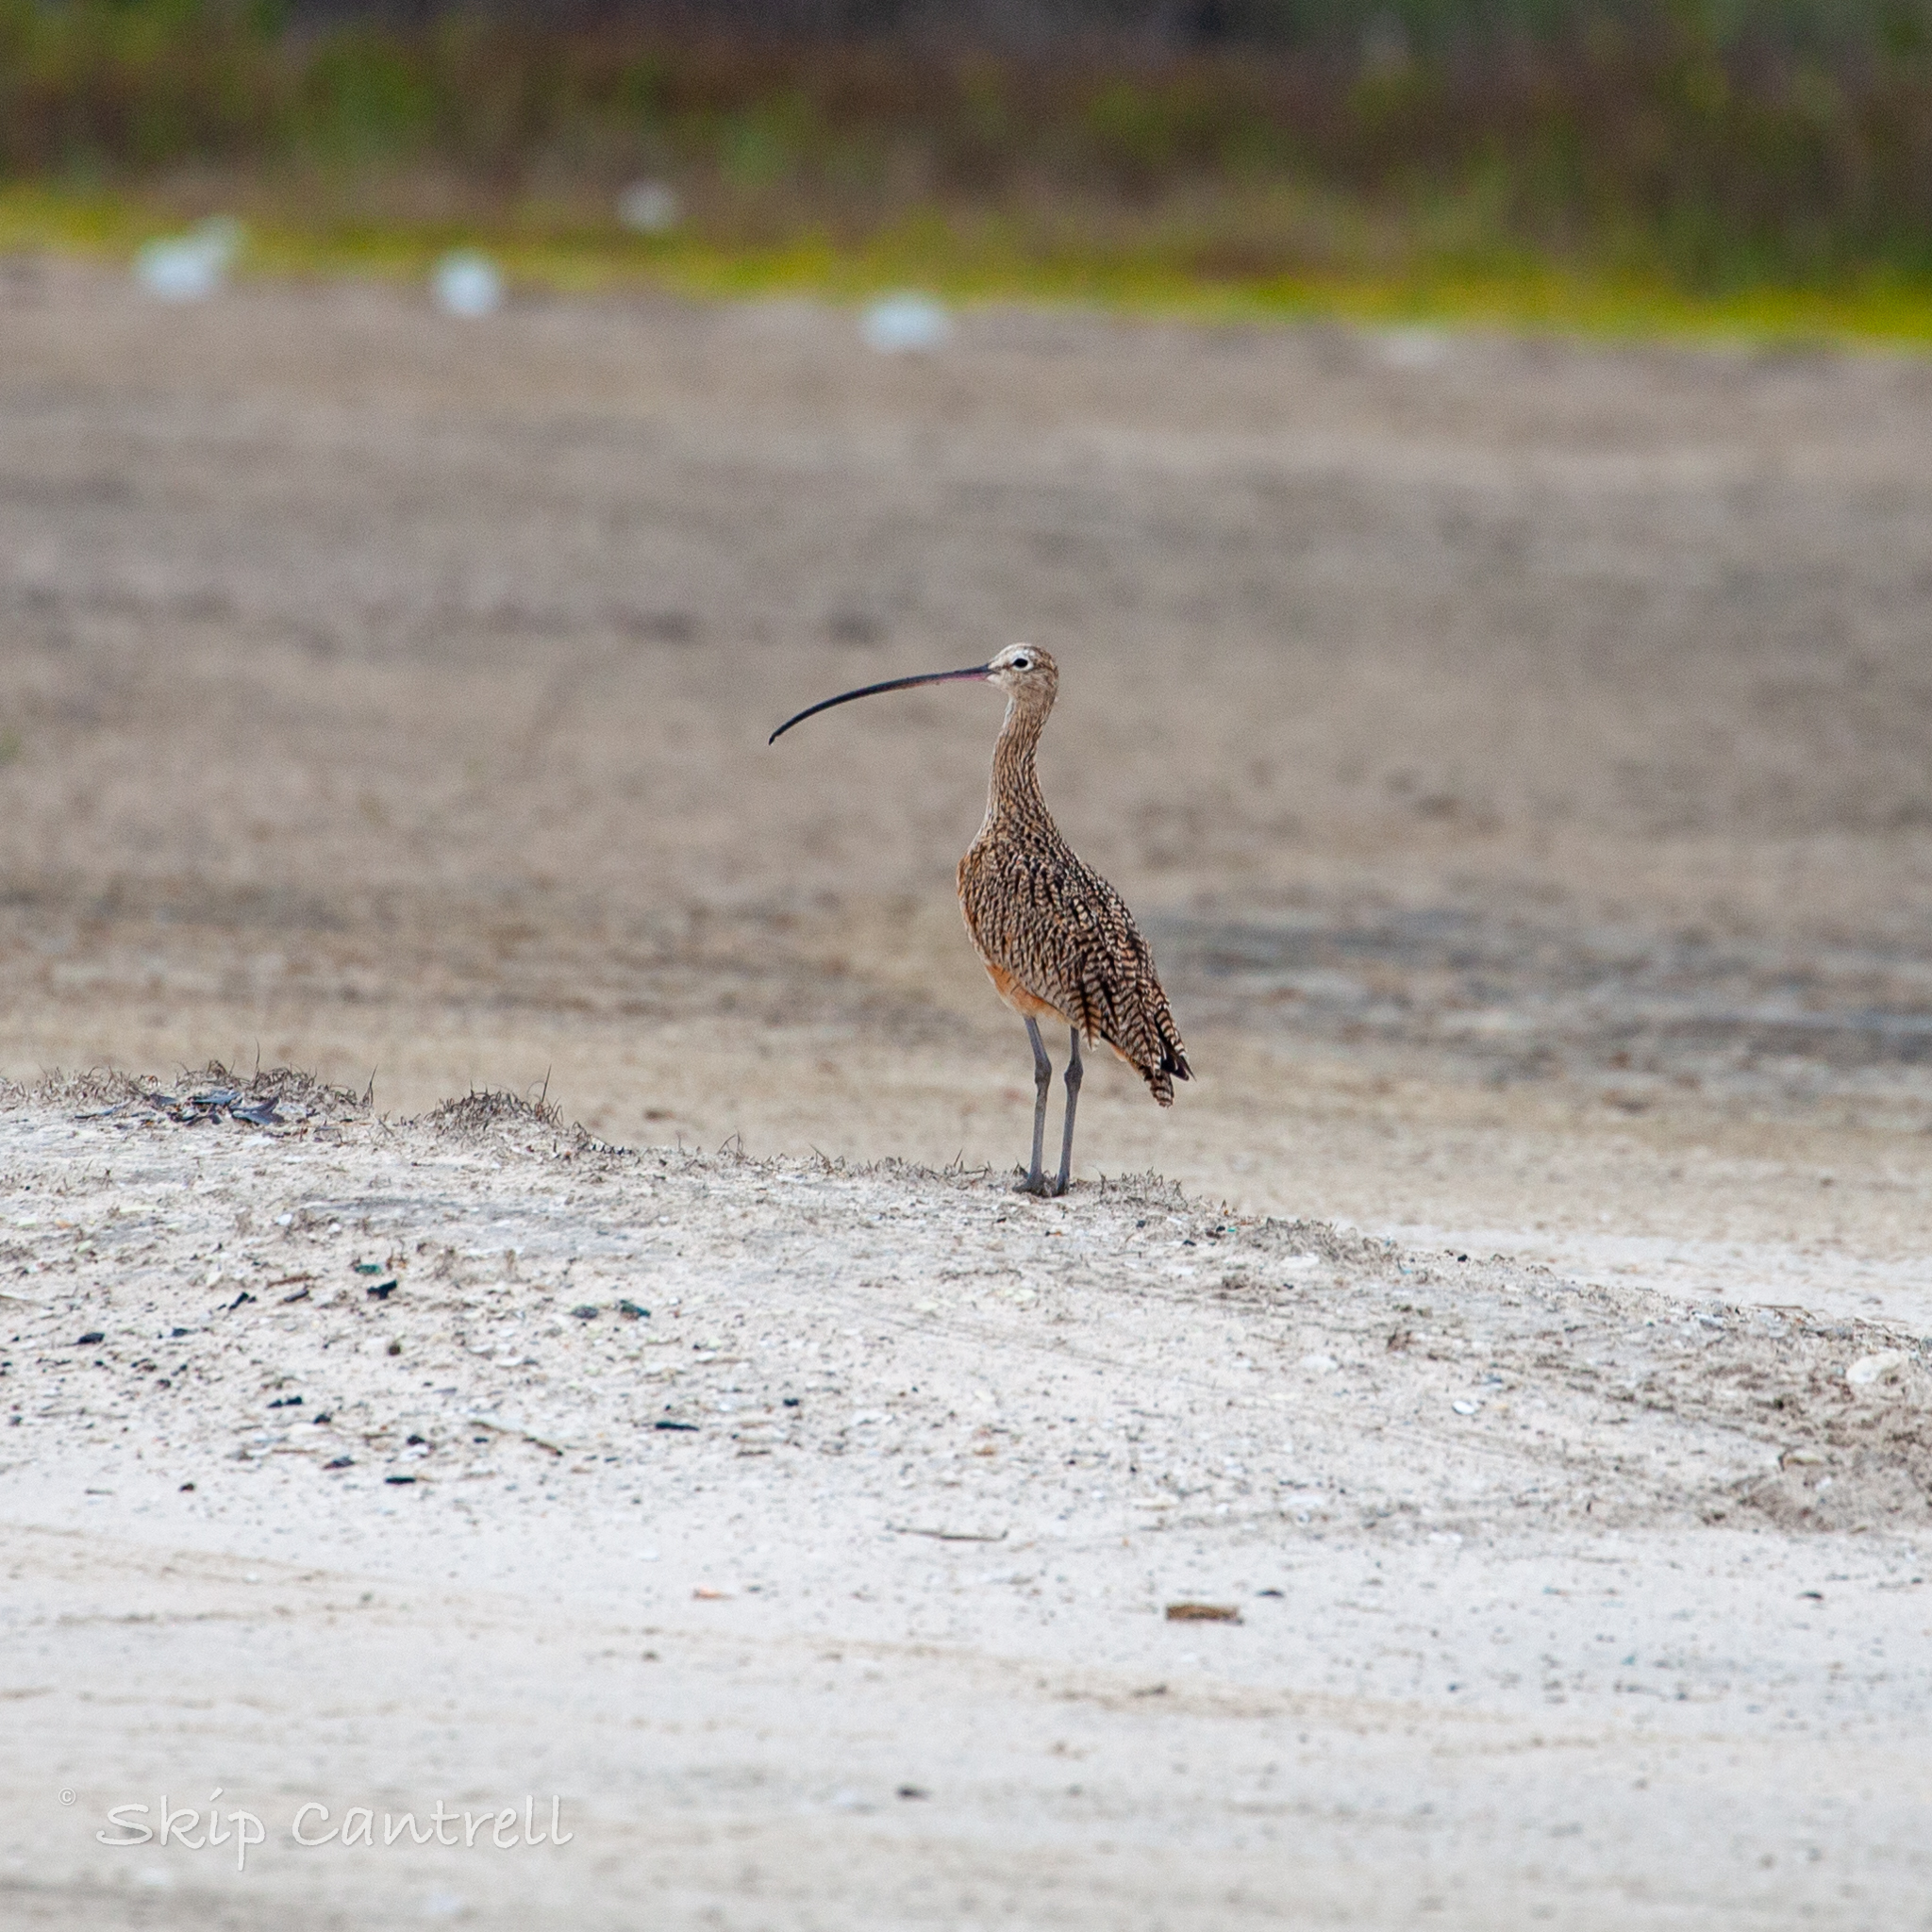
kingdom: Animalia
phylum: Chordata
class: Aves
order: Charadriiformes
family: Scolopacidae
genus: Numenius
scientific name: Numenius americanus
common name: Long-billed curlew
